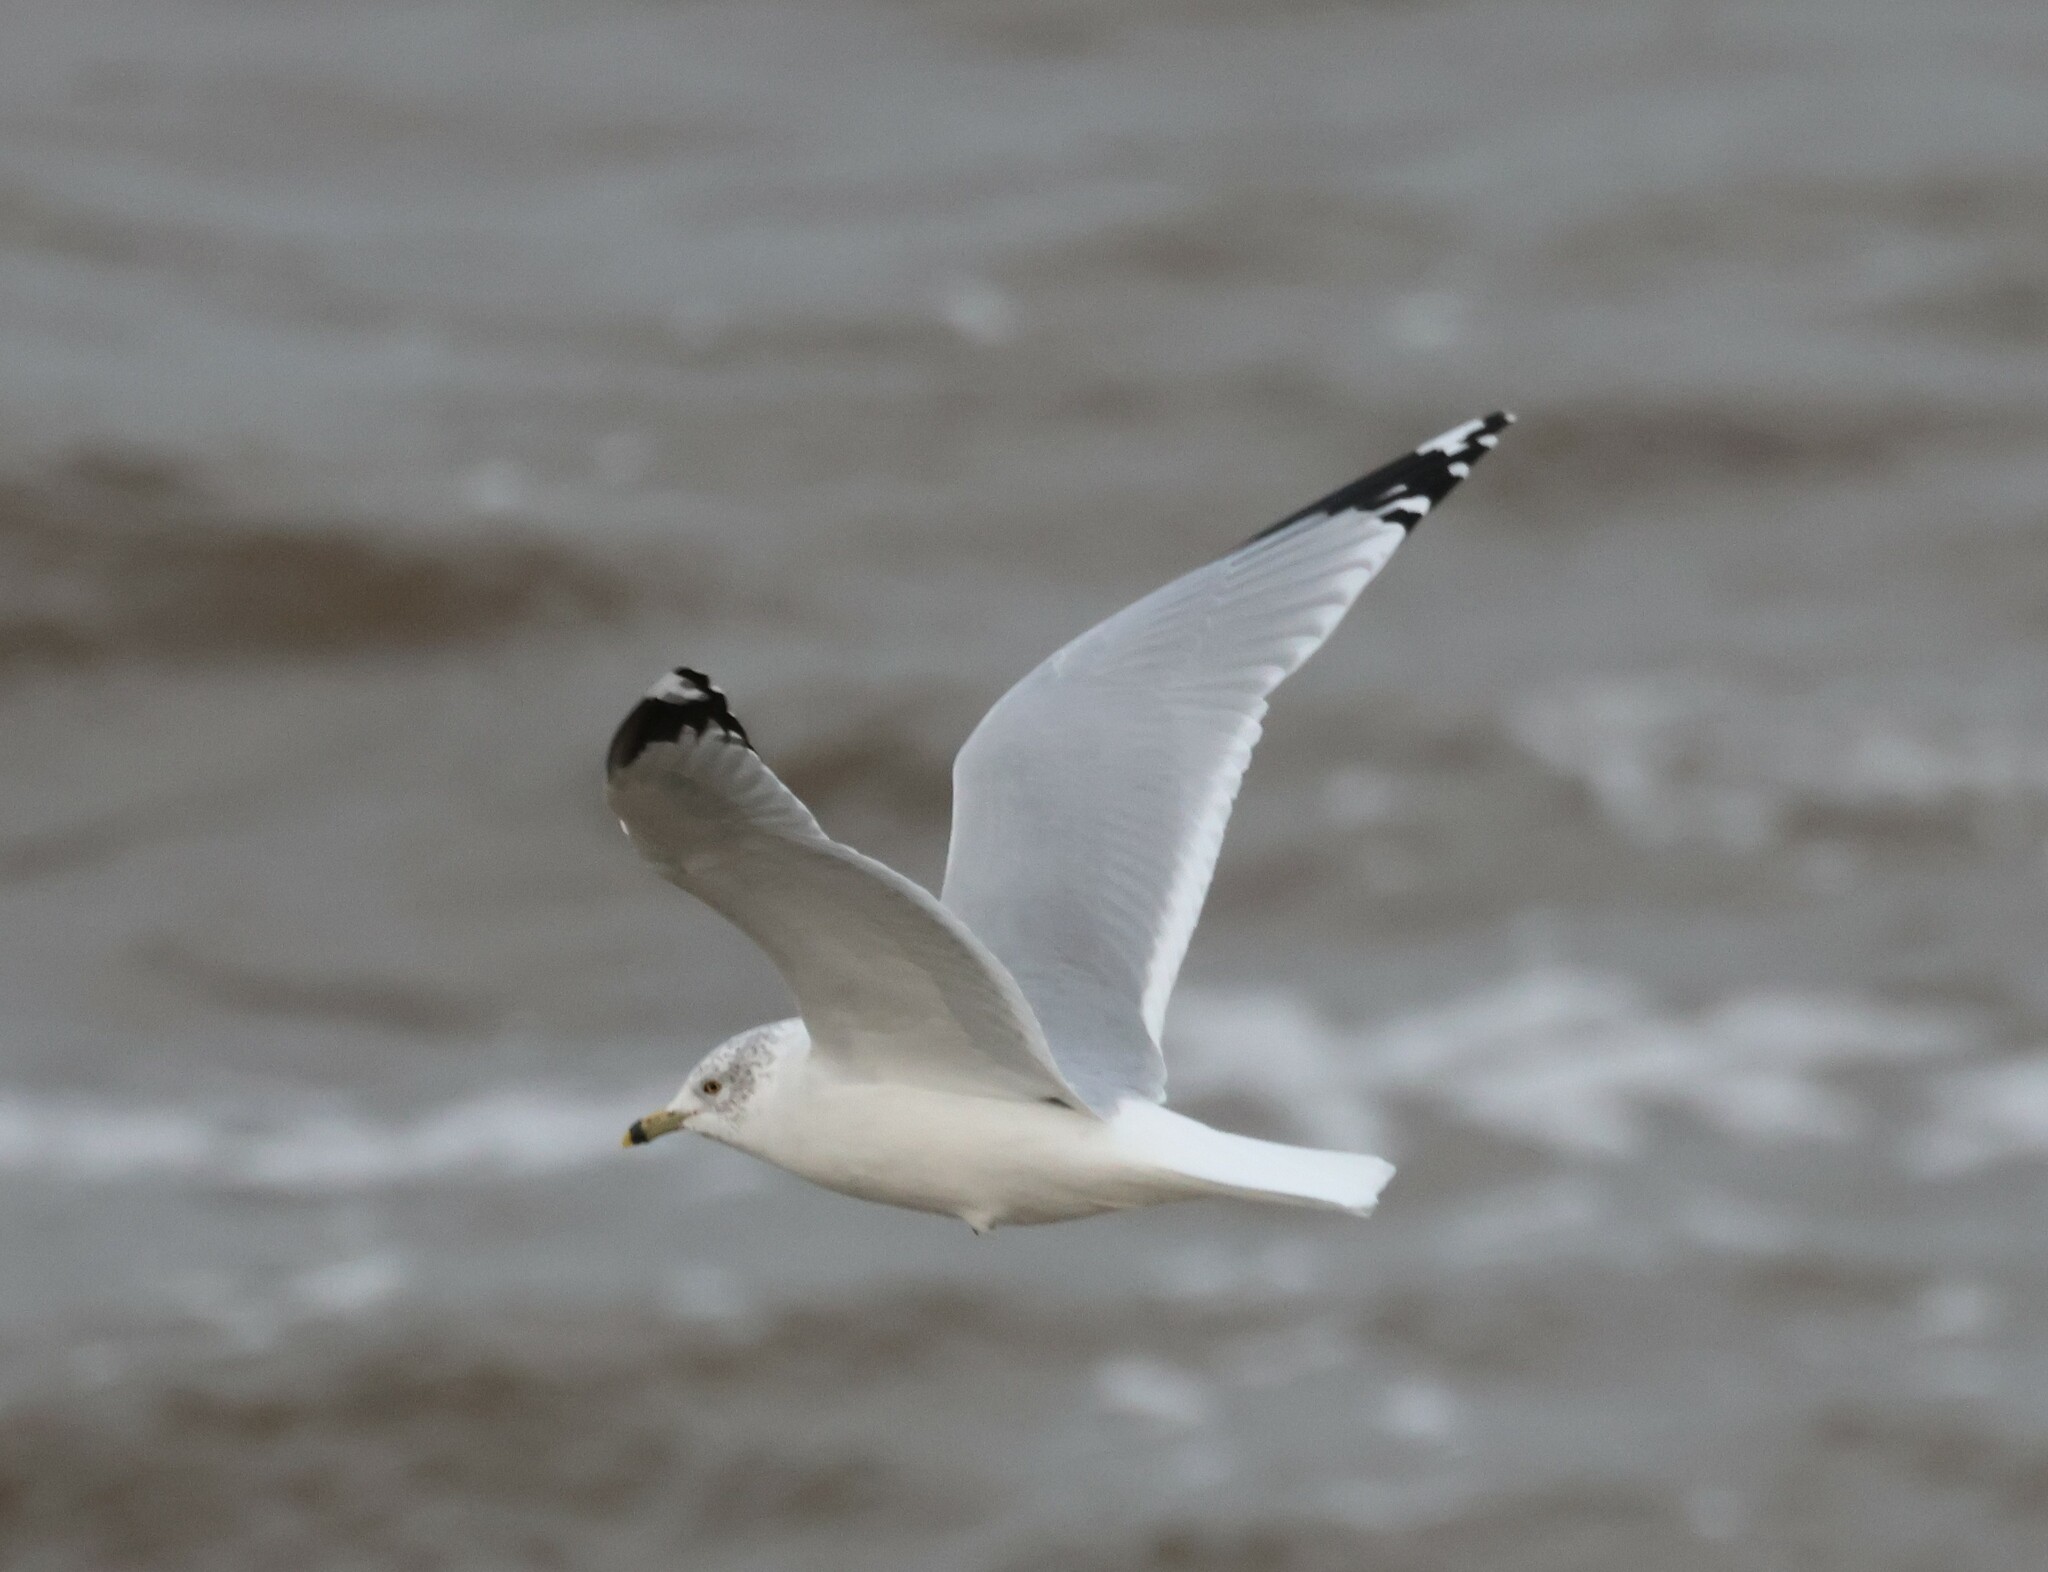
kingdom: Animalia
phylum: Chordata
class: Aves
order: Charadriiformes
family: Laridae
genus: Larus
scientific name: Larus delawarensis
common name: Ring-billed gull
